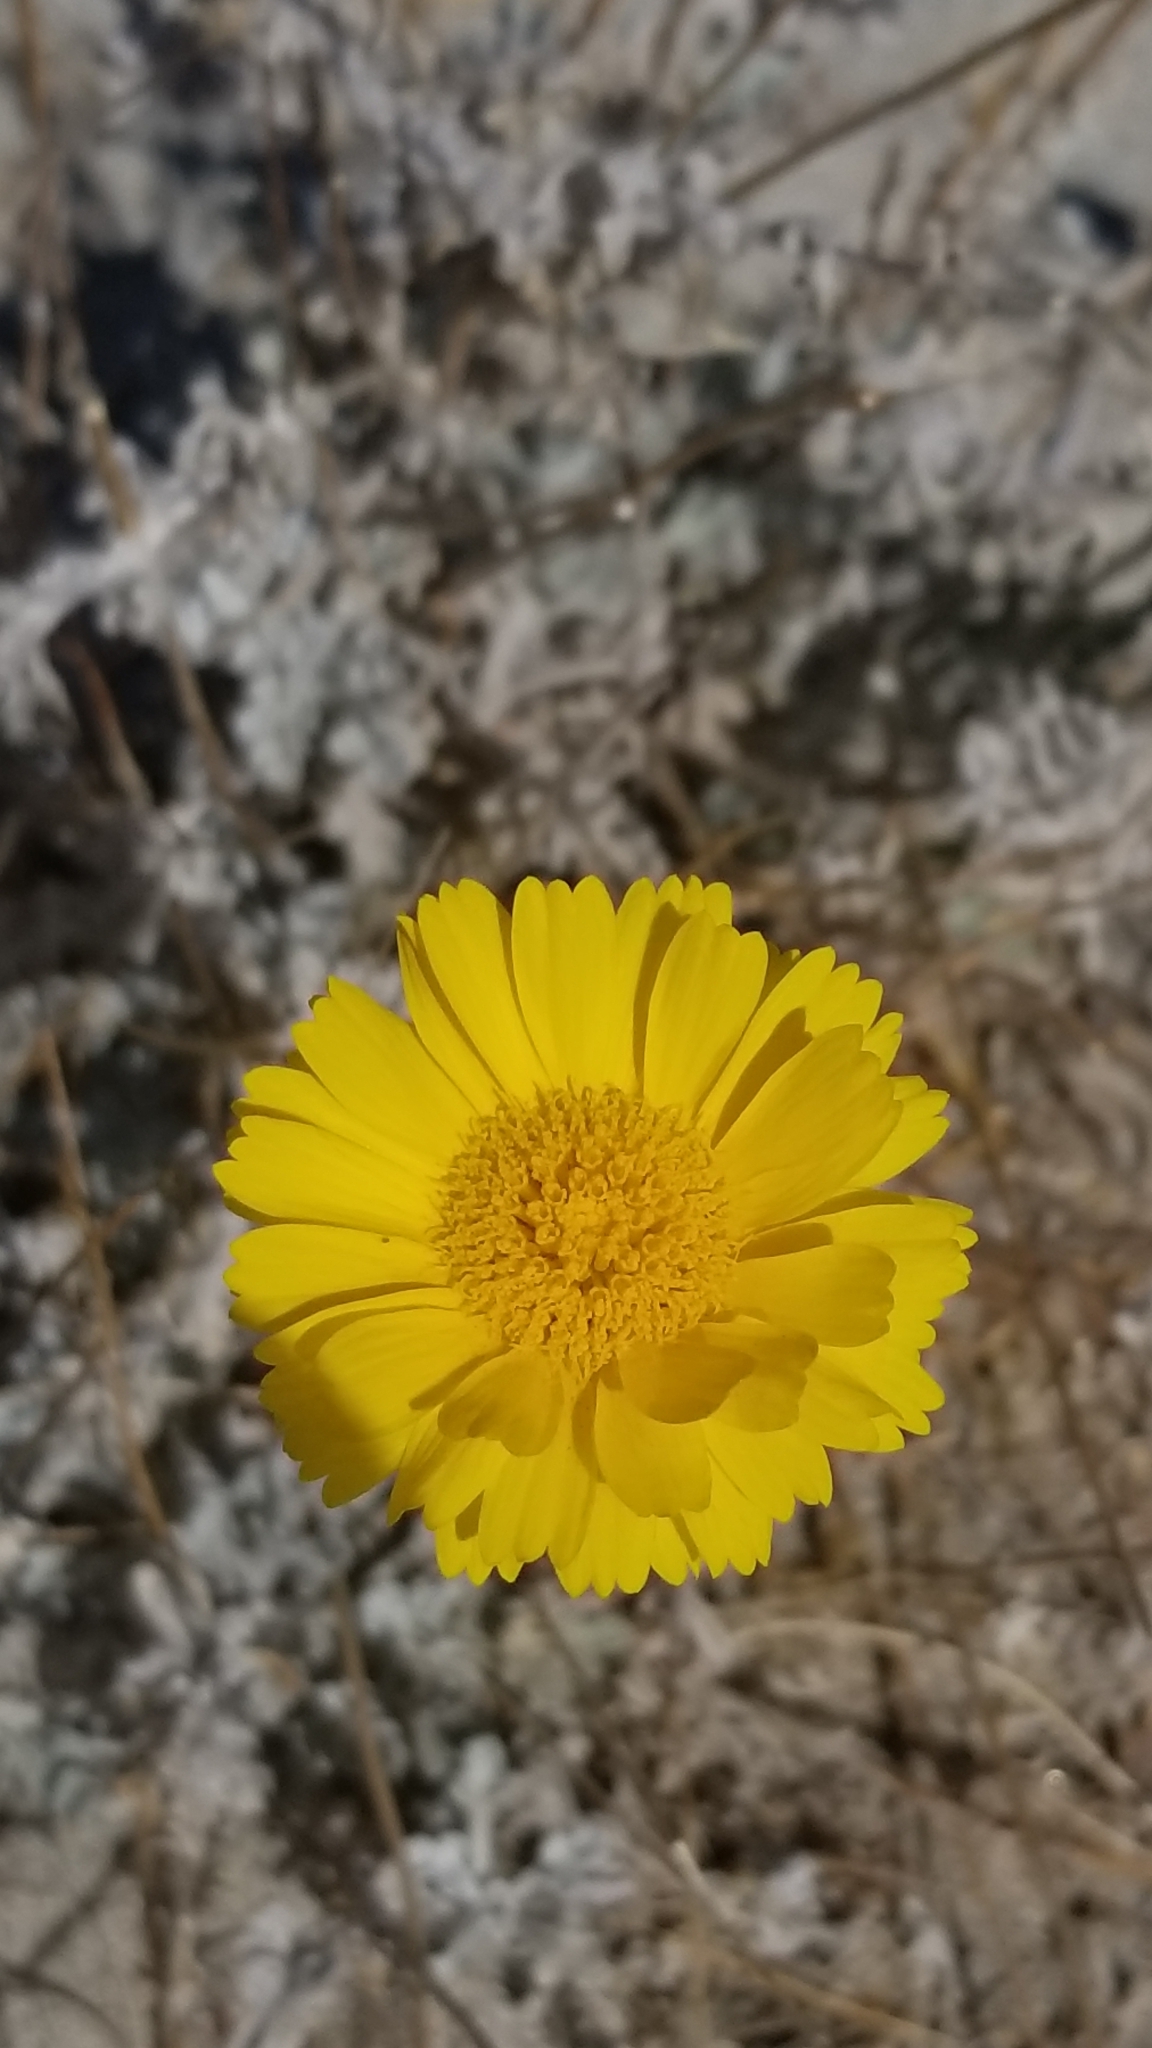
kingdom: Plantae
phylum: Tracheophyta
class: Magnoliopsida
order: Asterales
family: Asteraceae
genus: Baileya
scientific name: Baileya multiradiata
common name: Desert-marigold
